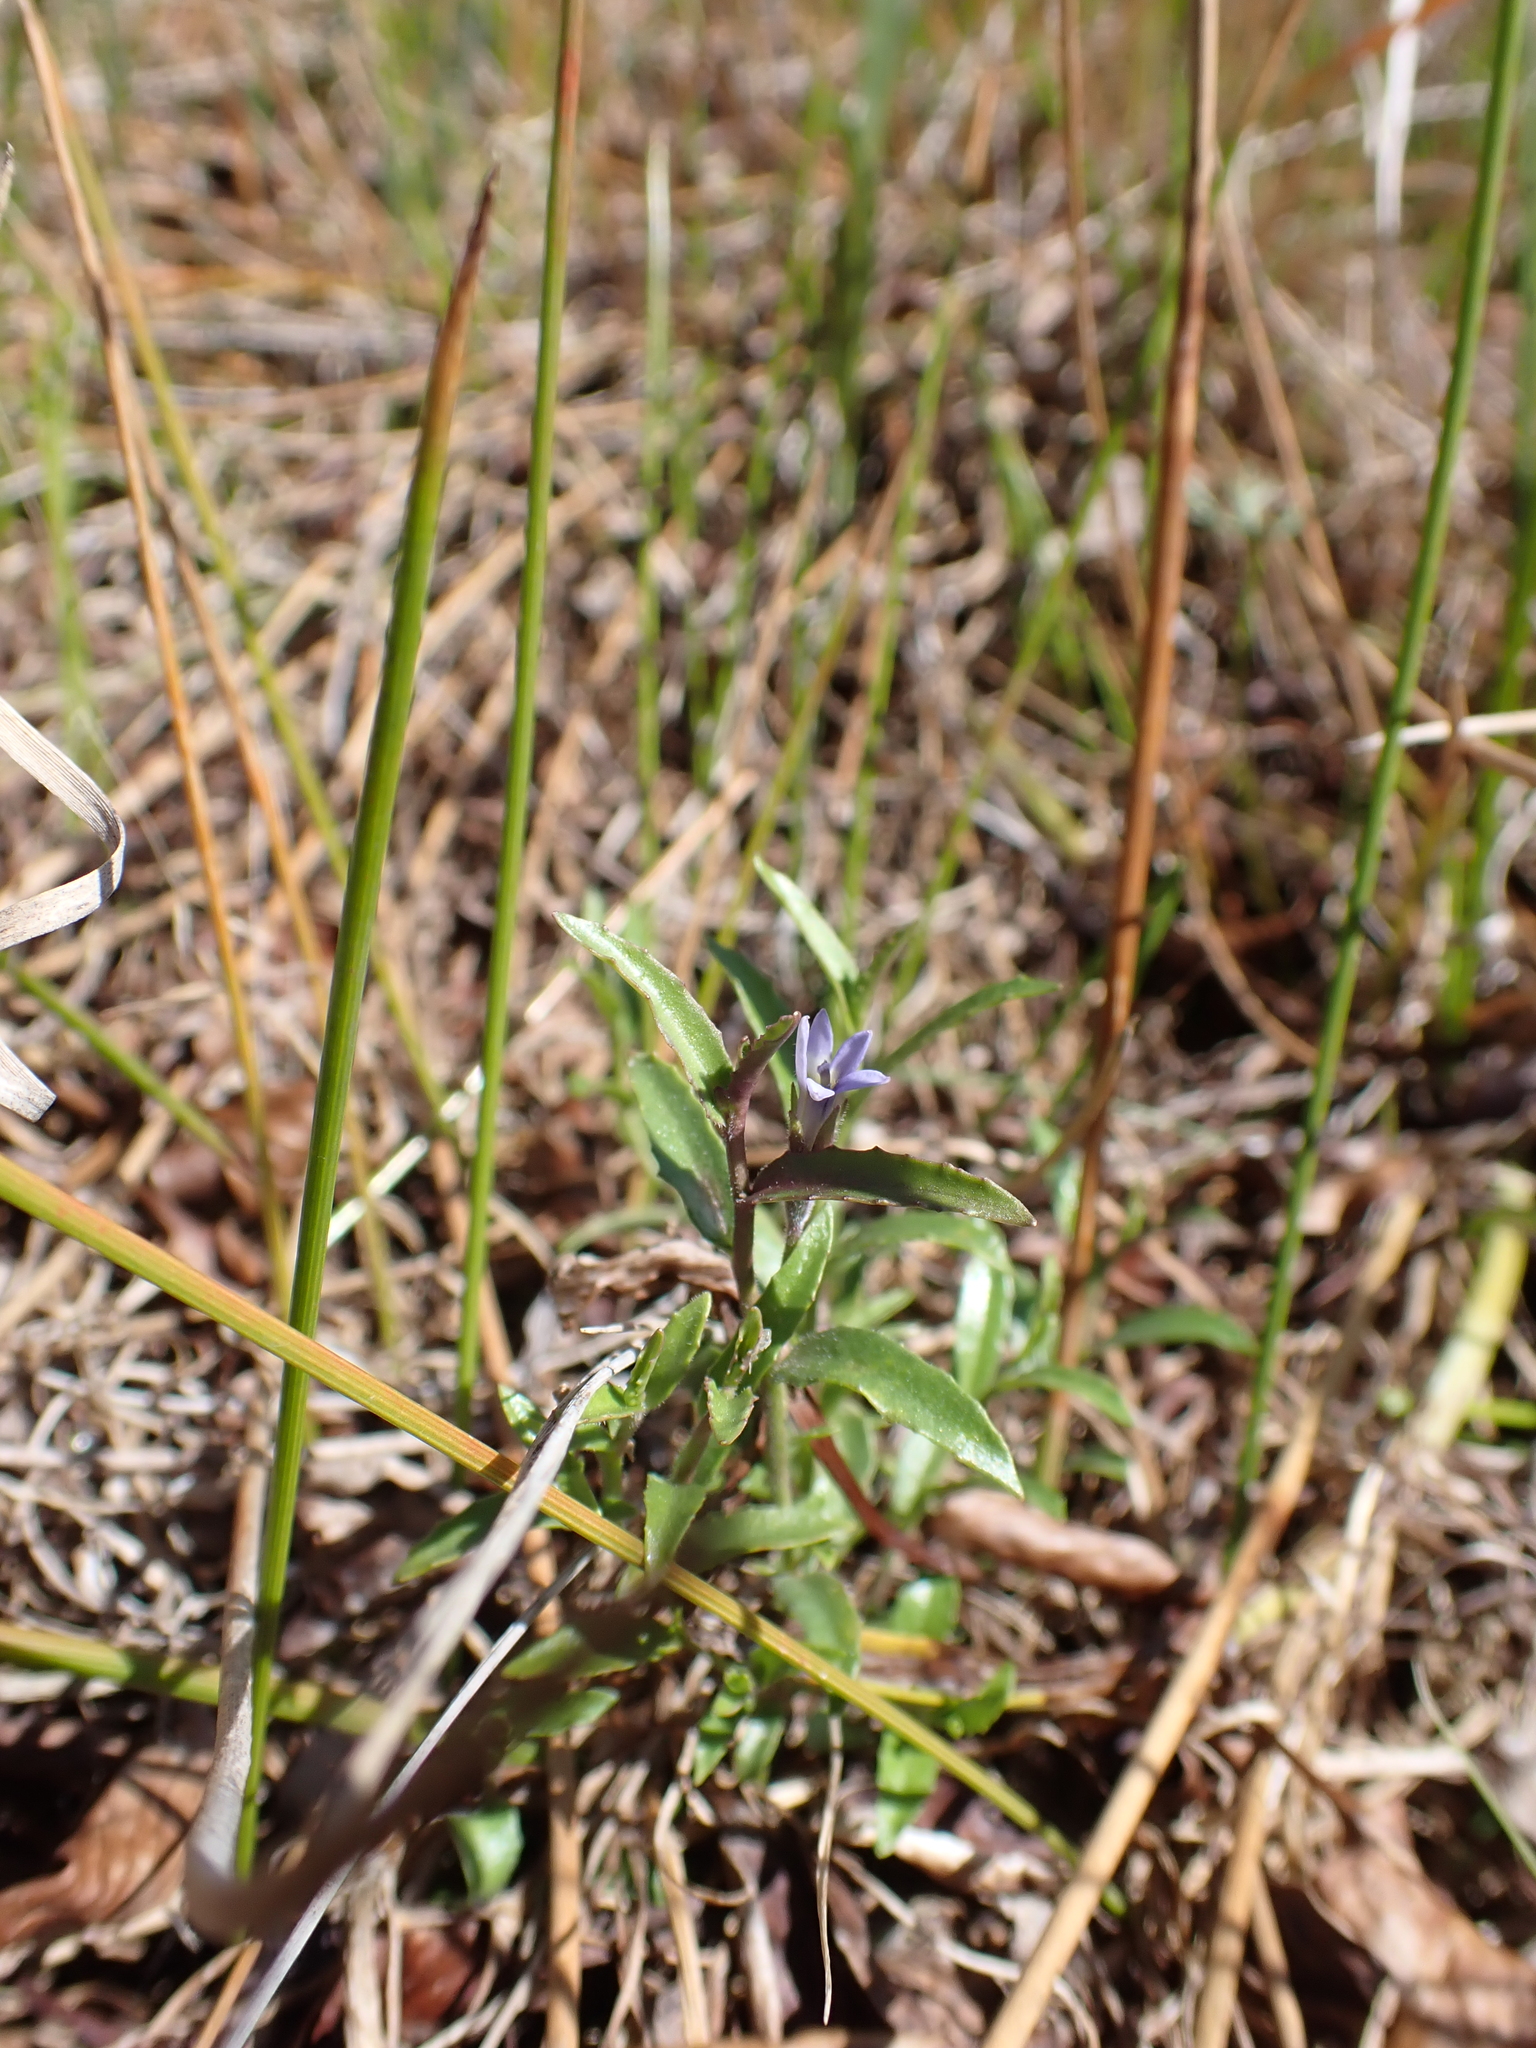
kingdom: Plantae
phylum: Tracheophyta
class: Magnoliopsida
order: Asterales
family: Campanulaceae
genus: Lobelia
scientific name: Lobelia pratioides
